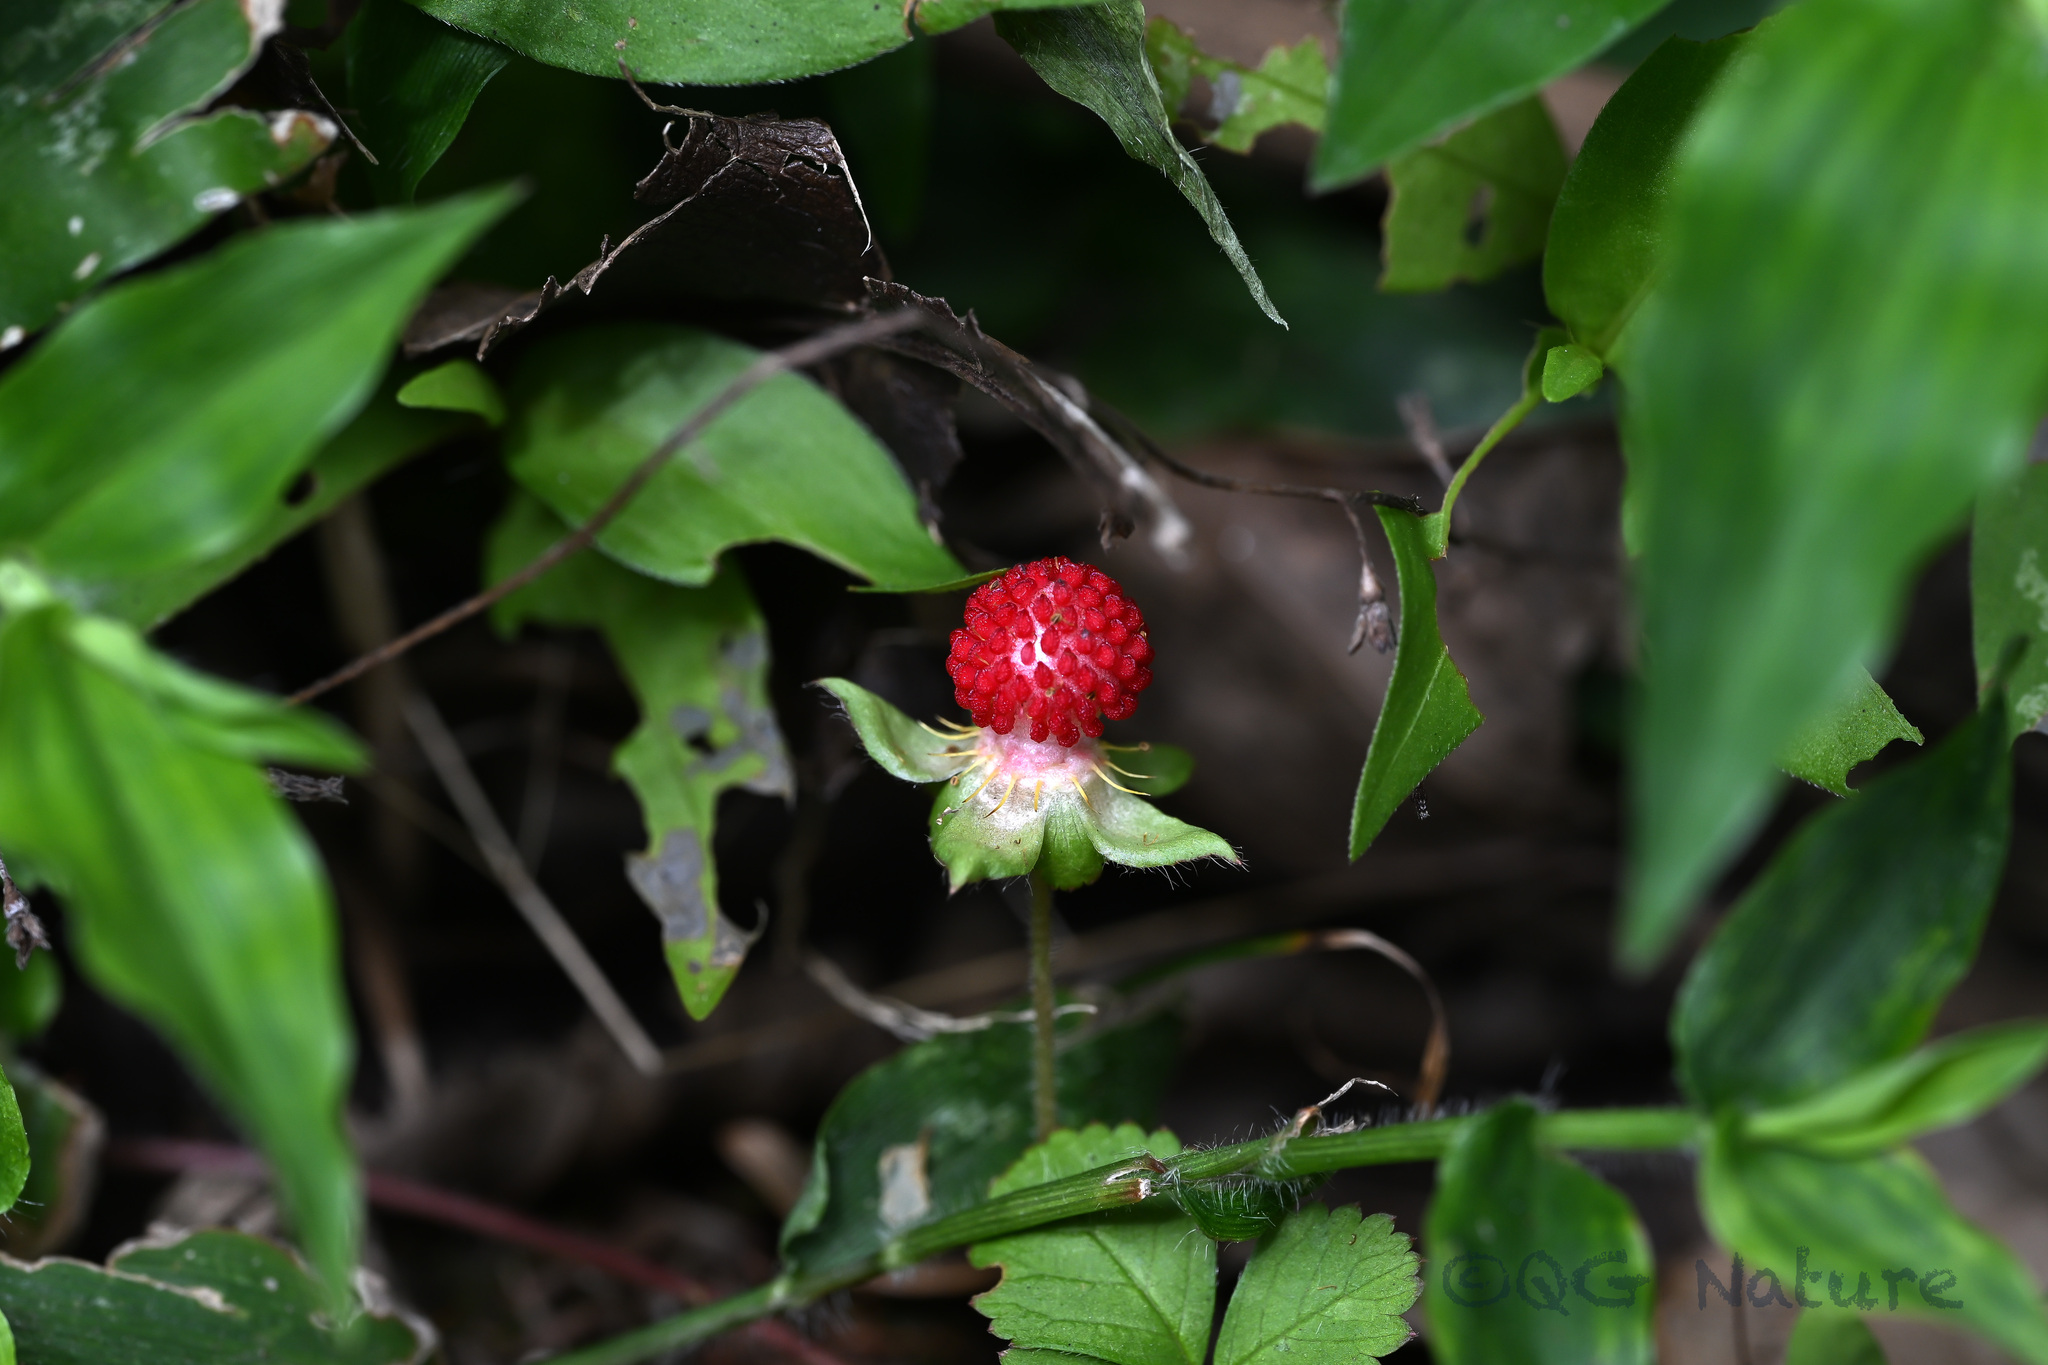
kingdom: Plantae
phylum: Tracheophyta
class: Magnoliopsida
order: Rosales
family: Rosaceae
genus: Potentilla
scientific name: Potentilla indica
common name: Yellow-flowered strawberry
